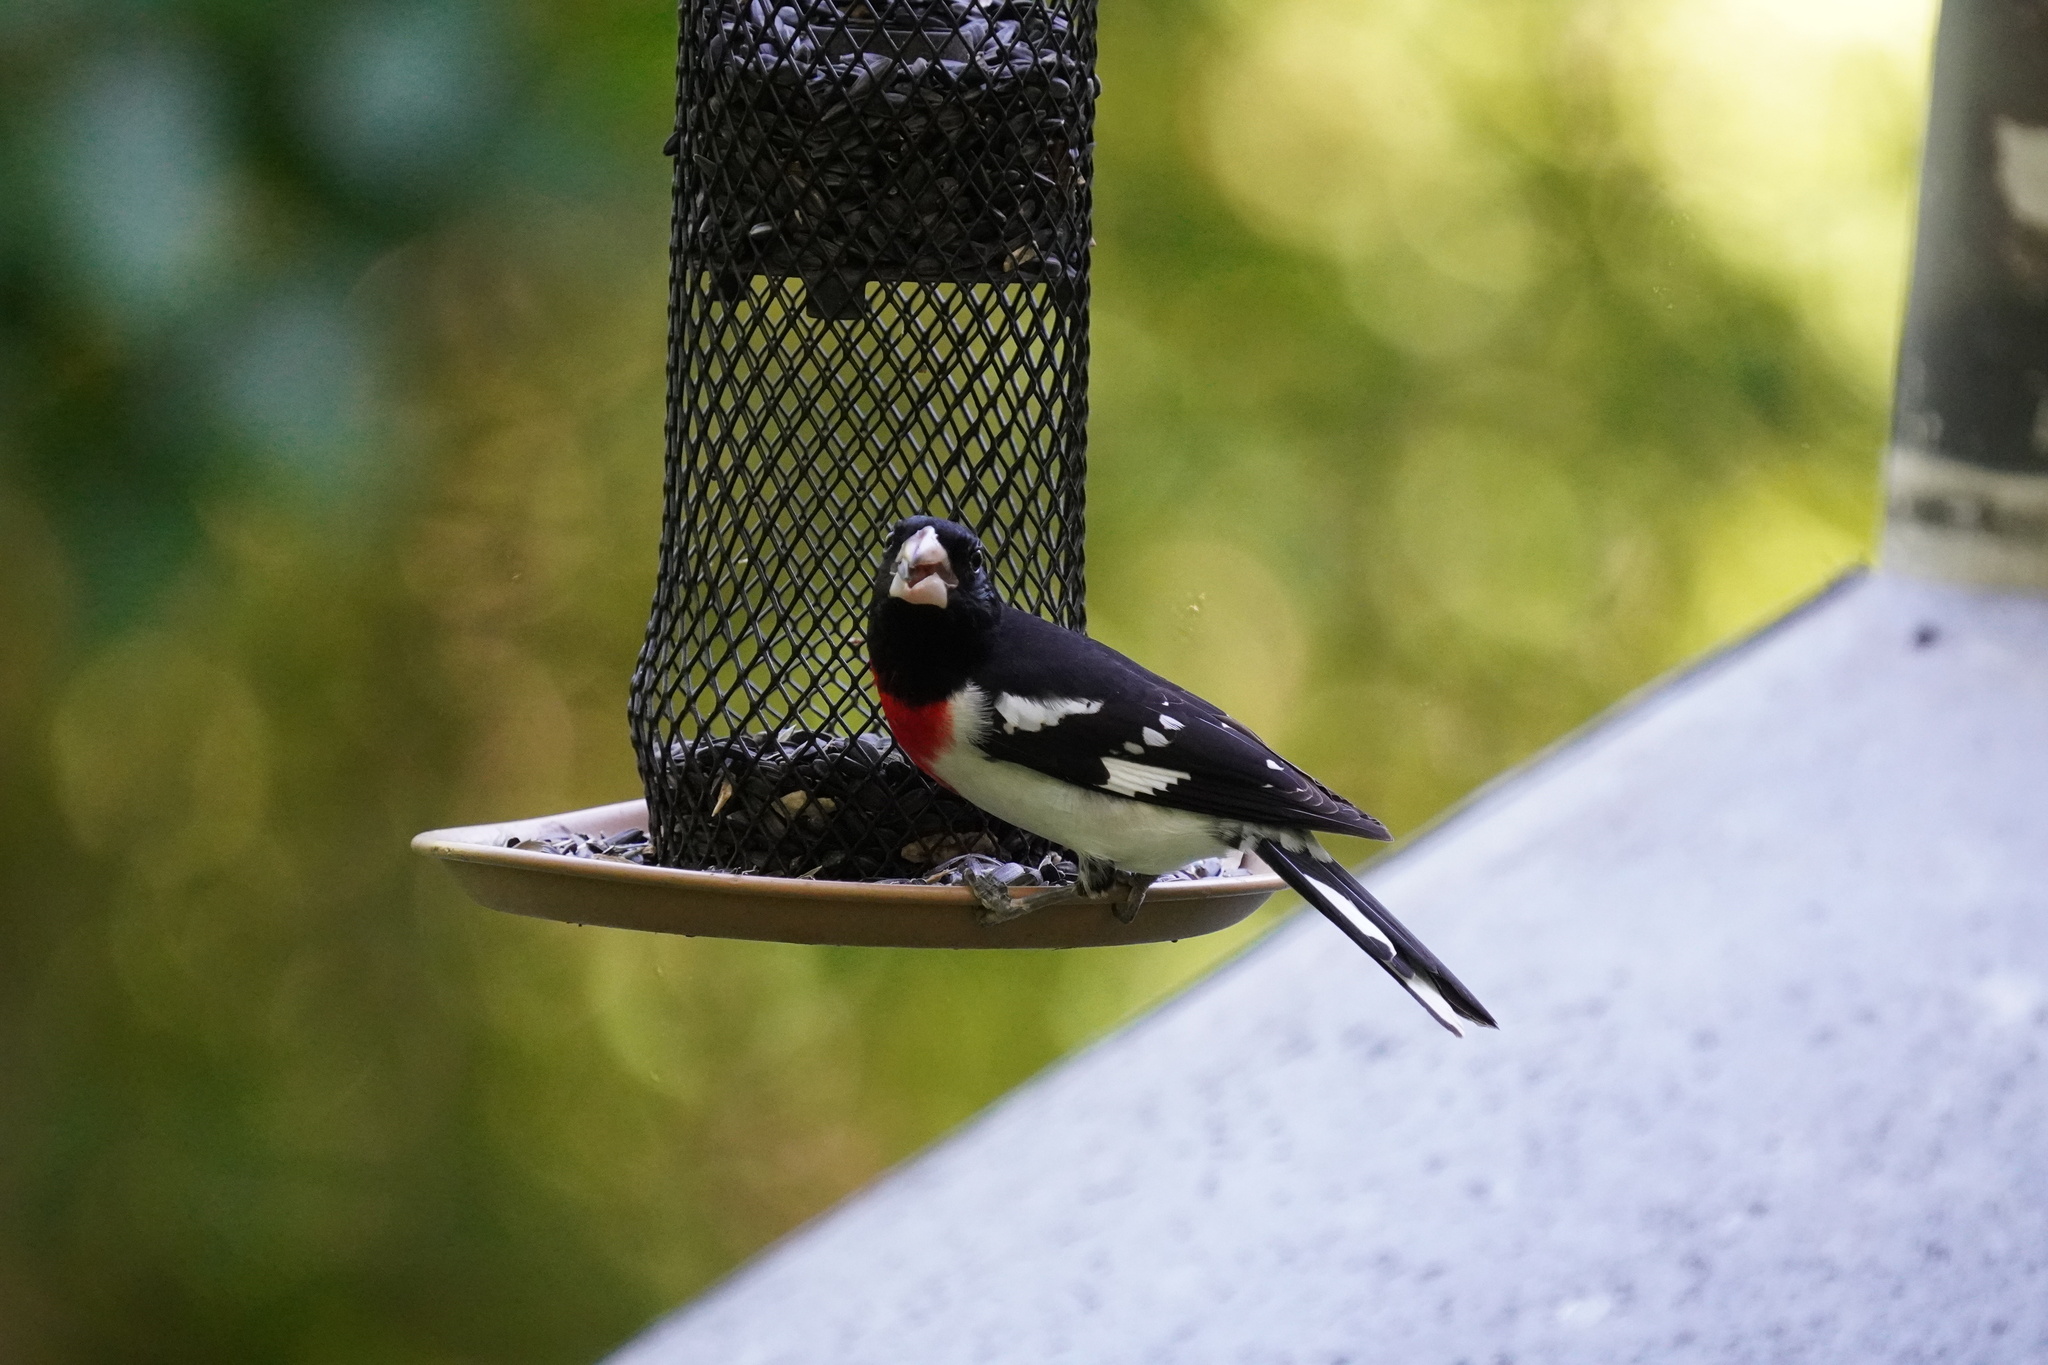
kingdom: Animalia
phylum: Chordata
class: Aves
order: Passeriformes
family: Cardinalidae
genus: Pheucticus
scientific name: Pheucticus ludovicianus
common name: Rose-breasted grosbeak
